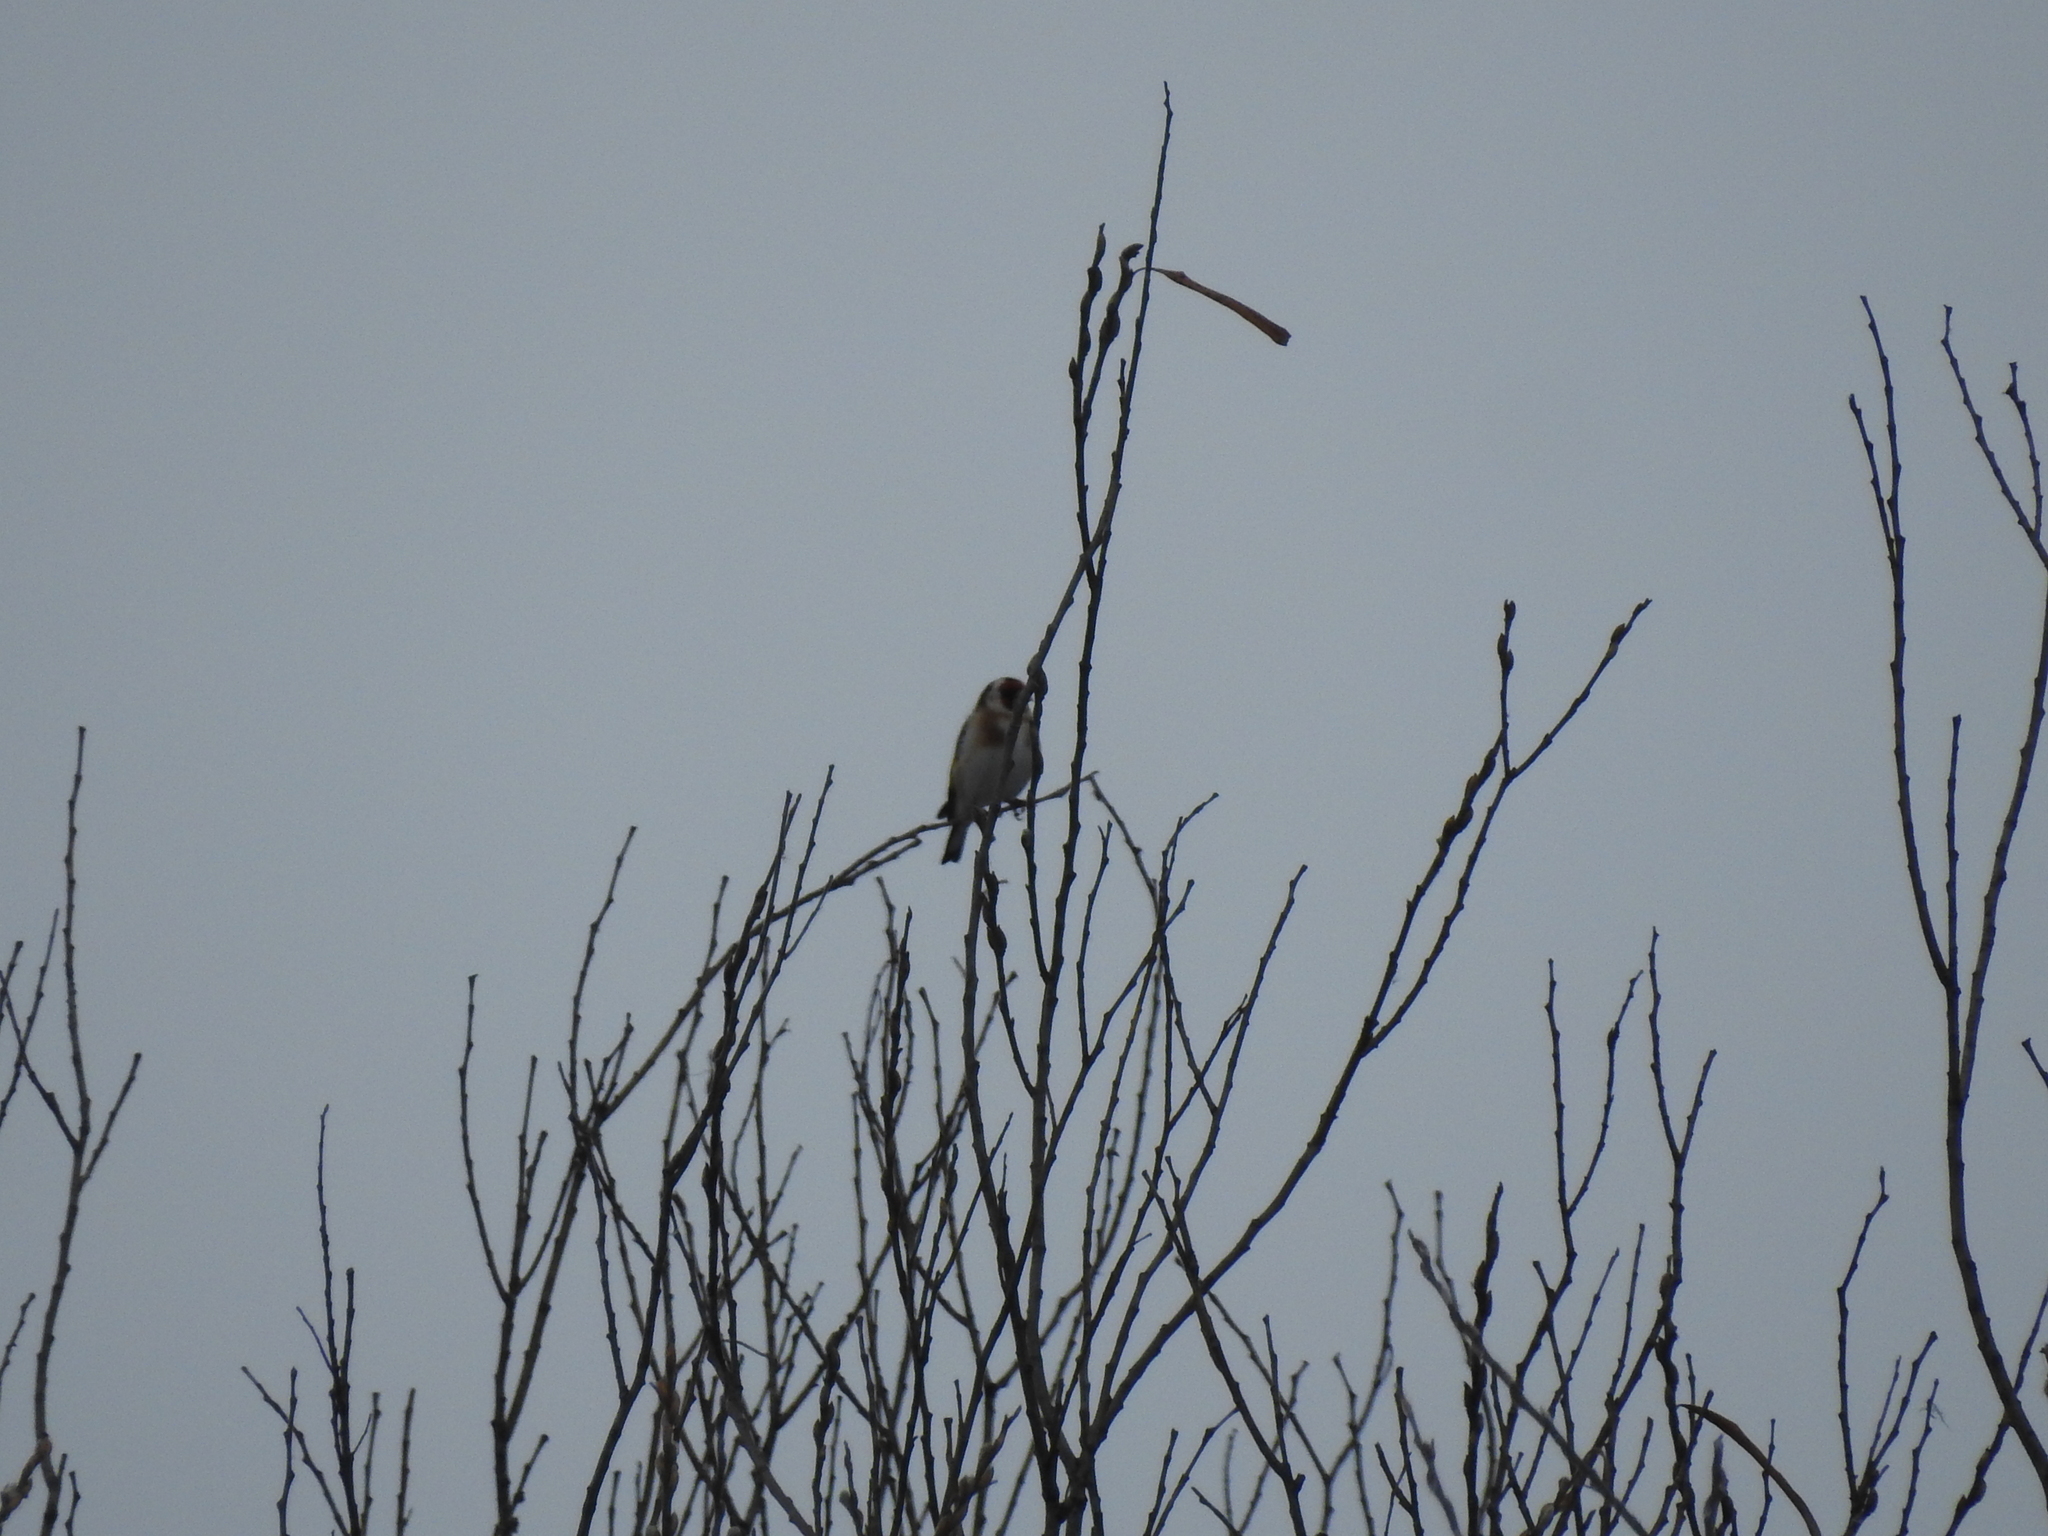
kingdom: Animalia
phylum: Chordata
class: Aves
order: Passeriformes
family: Fringillidae
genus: Carduelis
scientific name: Carduelis carduelis
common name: European goldfinch
